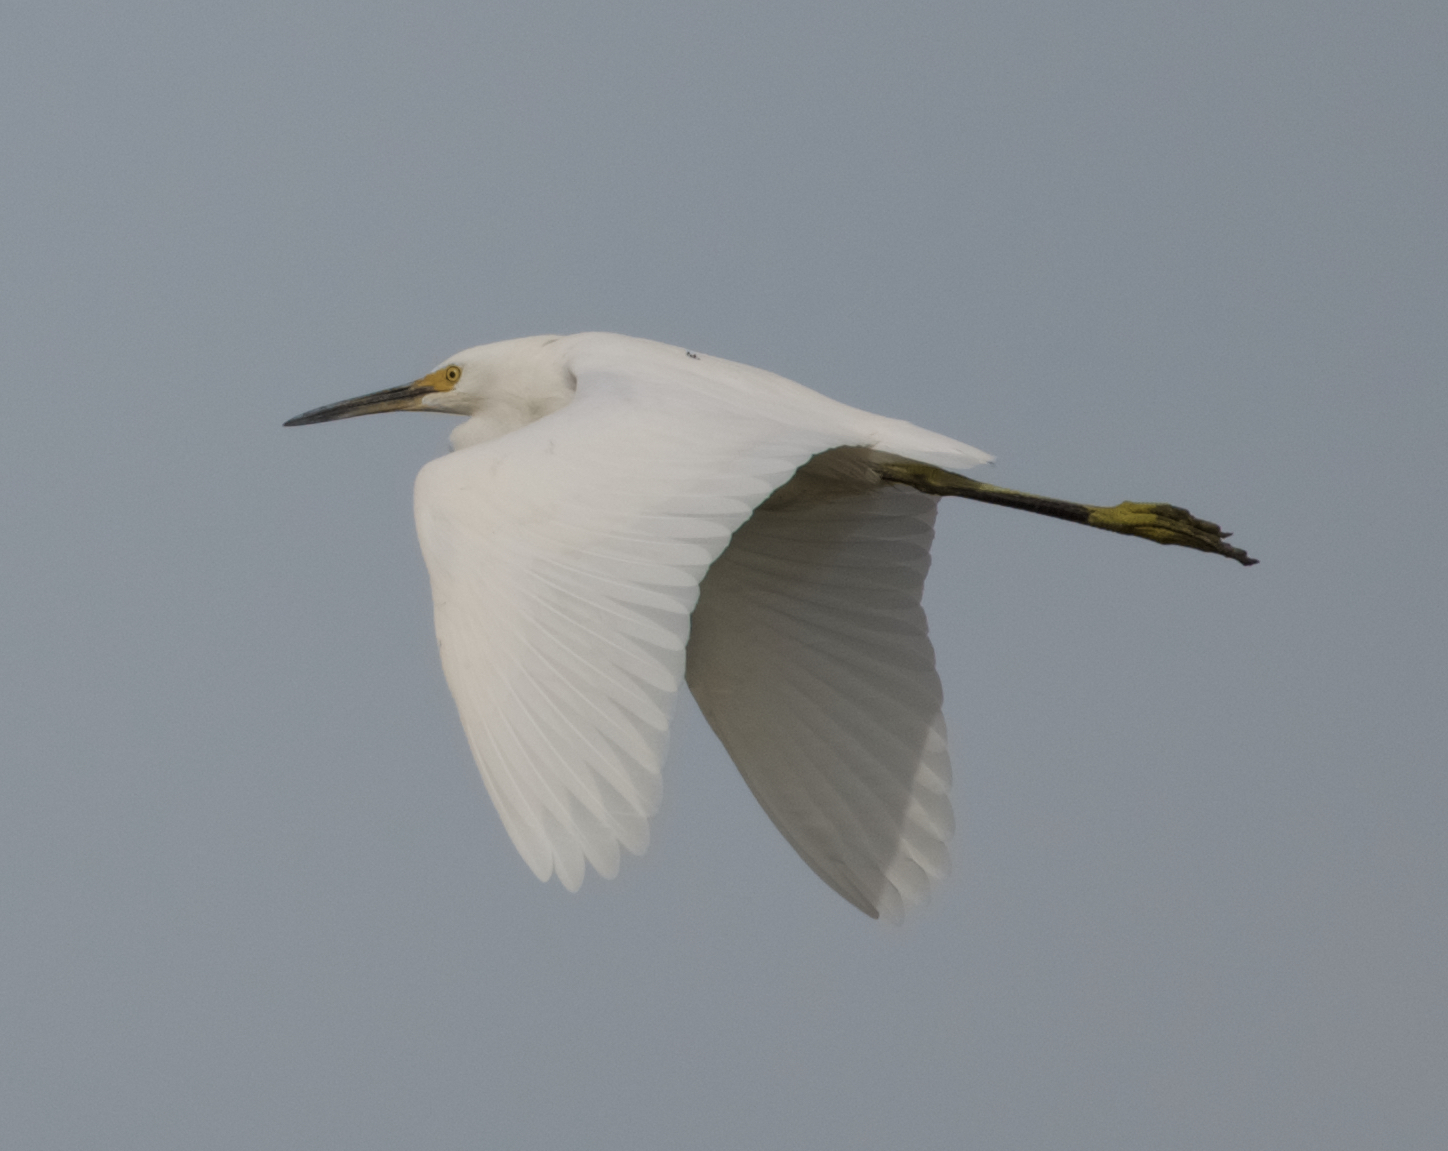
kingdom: Animalia
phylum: Chordata
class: Aves
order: Pelecaniformes
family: Ardeidae
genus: Egretta
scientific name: Egretta thula
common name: Snowy egret
